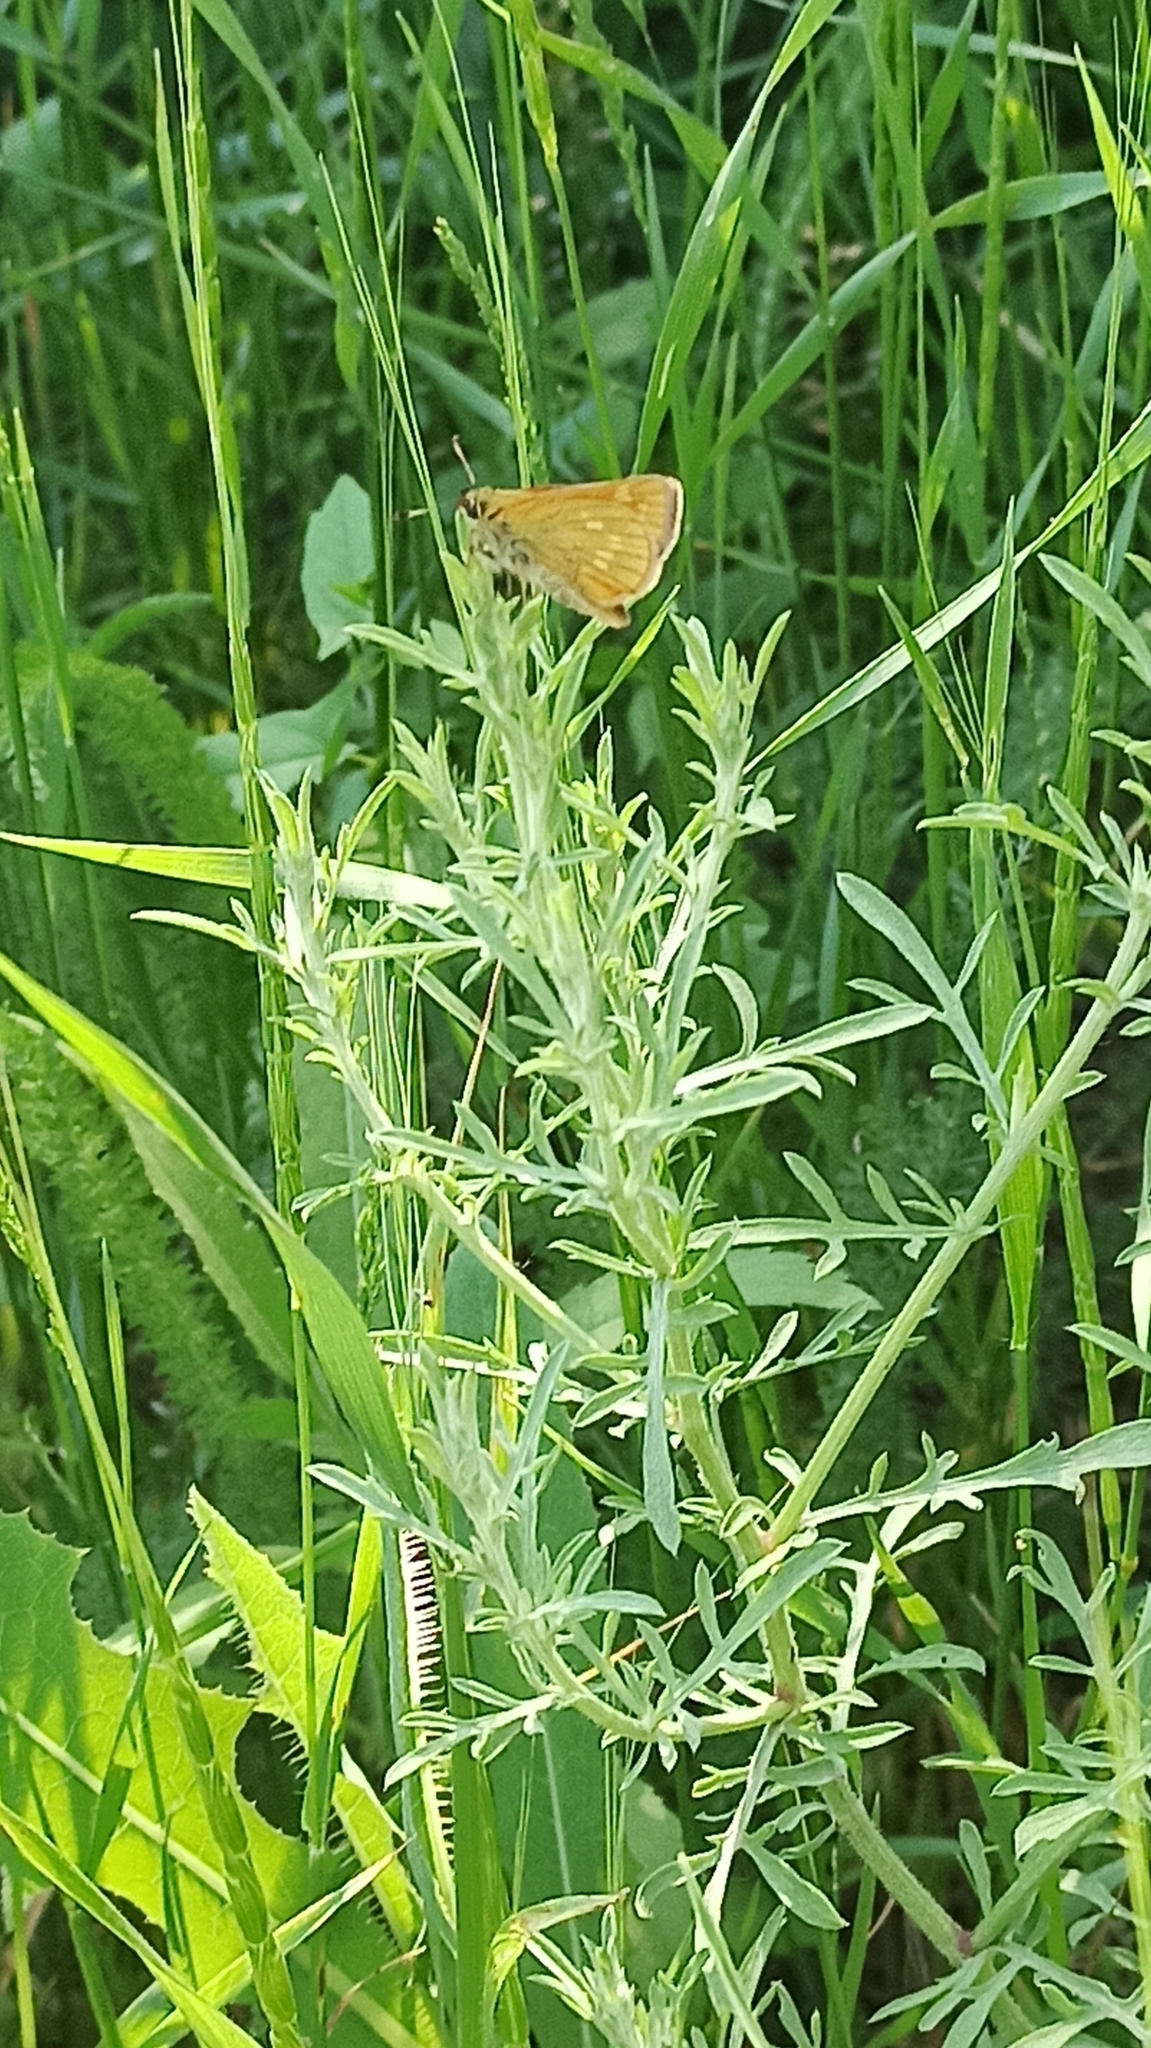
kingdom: Animalia
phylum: Arthropoda
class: Insecta
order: Lepidoptera
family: Hesperiidae
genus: Ochlodes
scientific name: Ochlodes venata
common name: Large skipper
